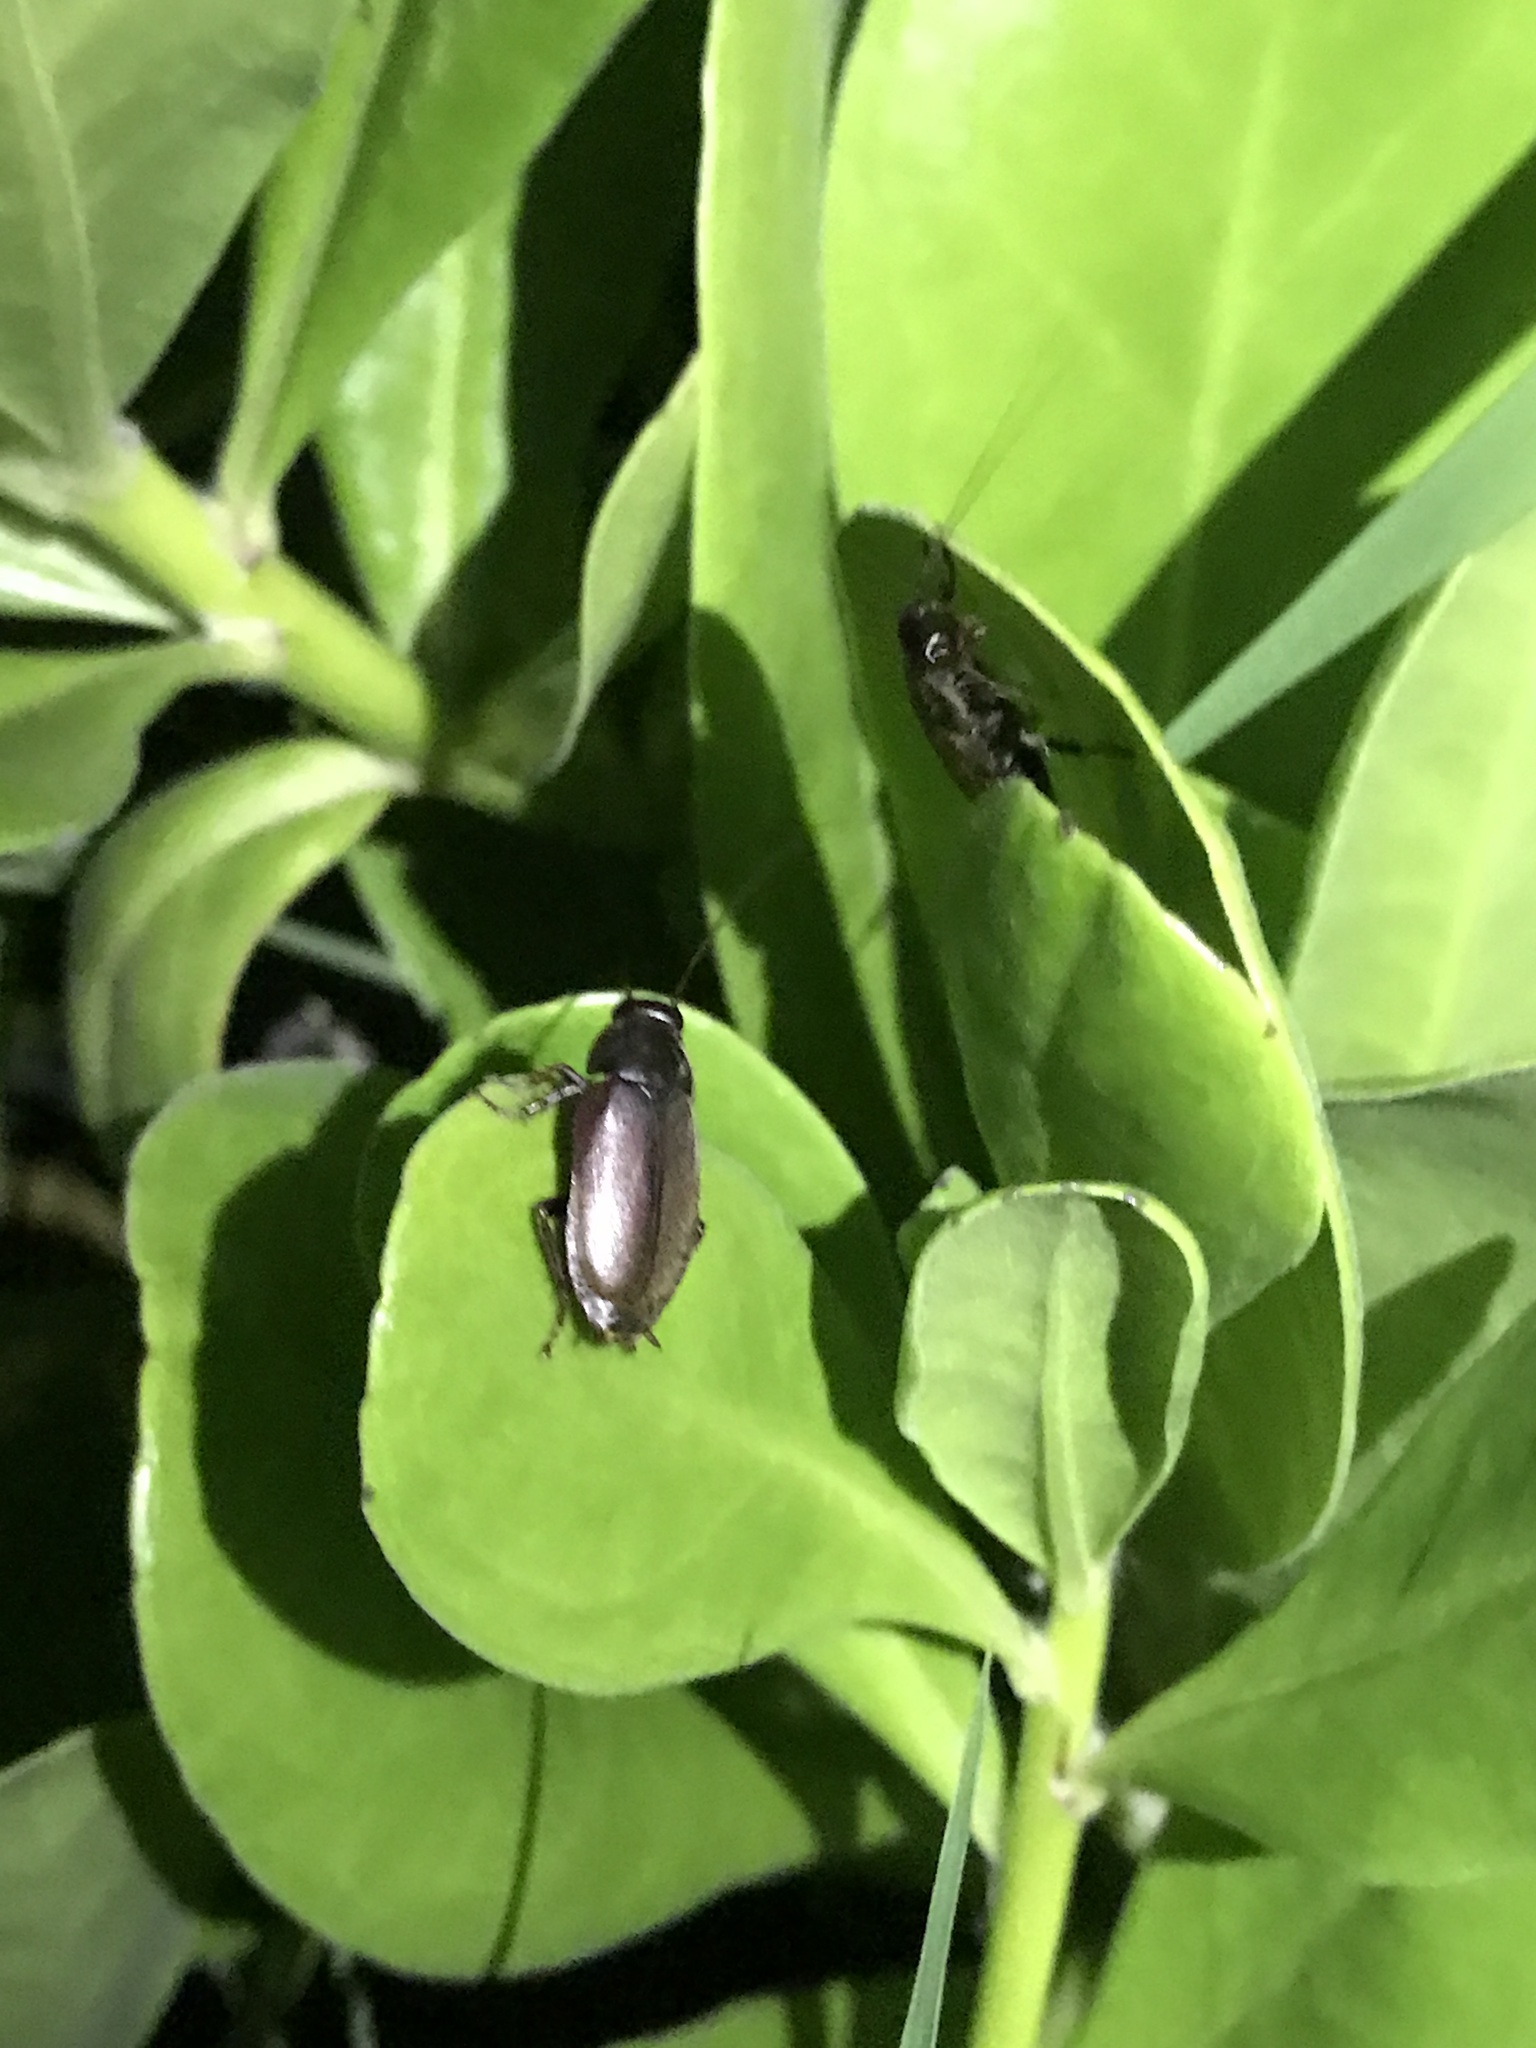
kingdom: Animalia
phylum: Arthropoda
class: Insecta
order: Blattodea
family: Blaberidae
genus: Diploptera
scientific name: Diploptera punctata
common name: Pacific beetle cockroach
